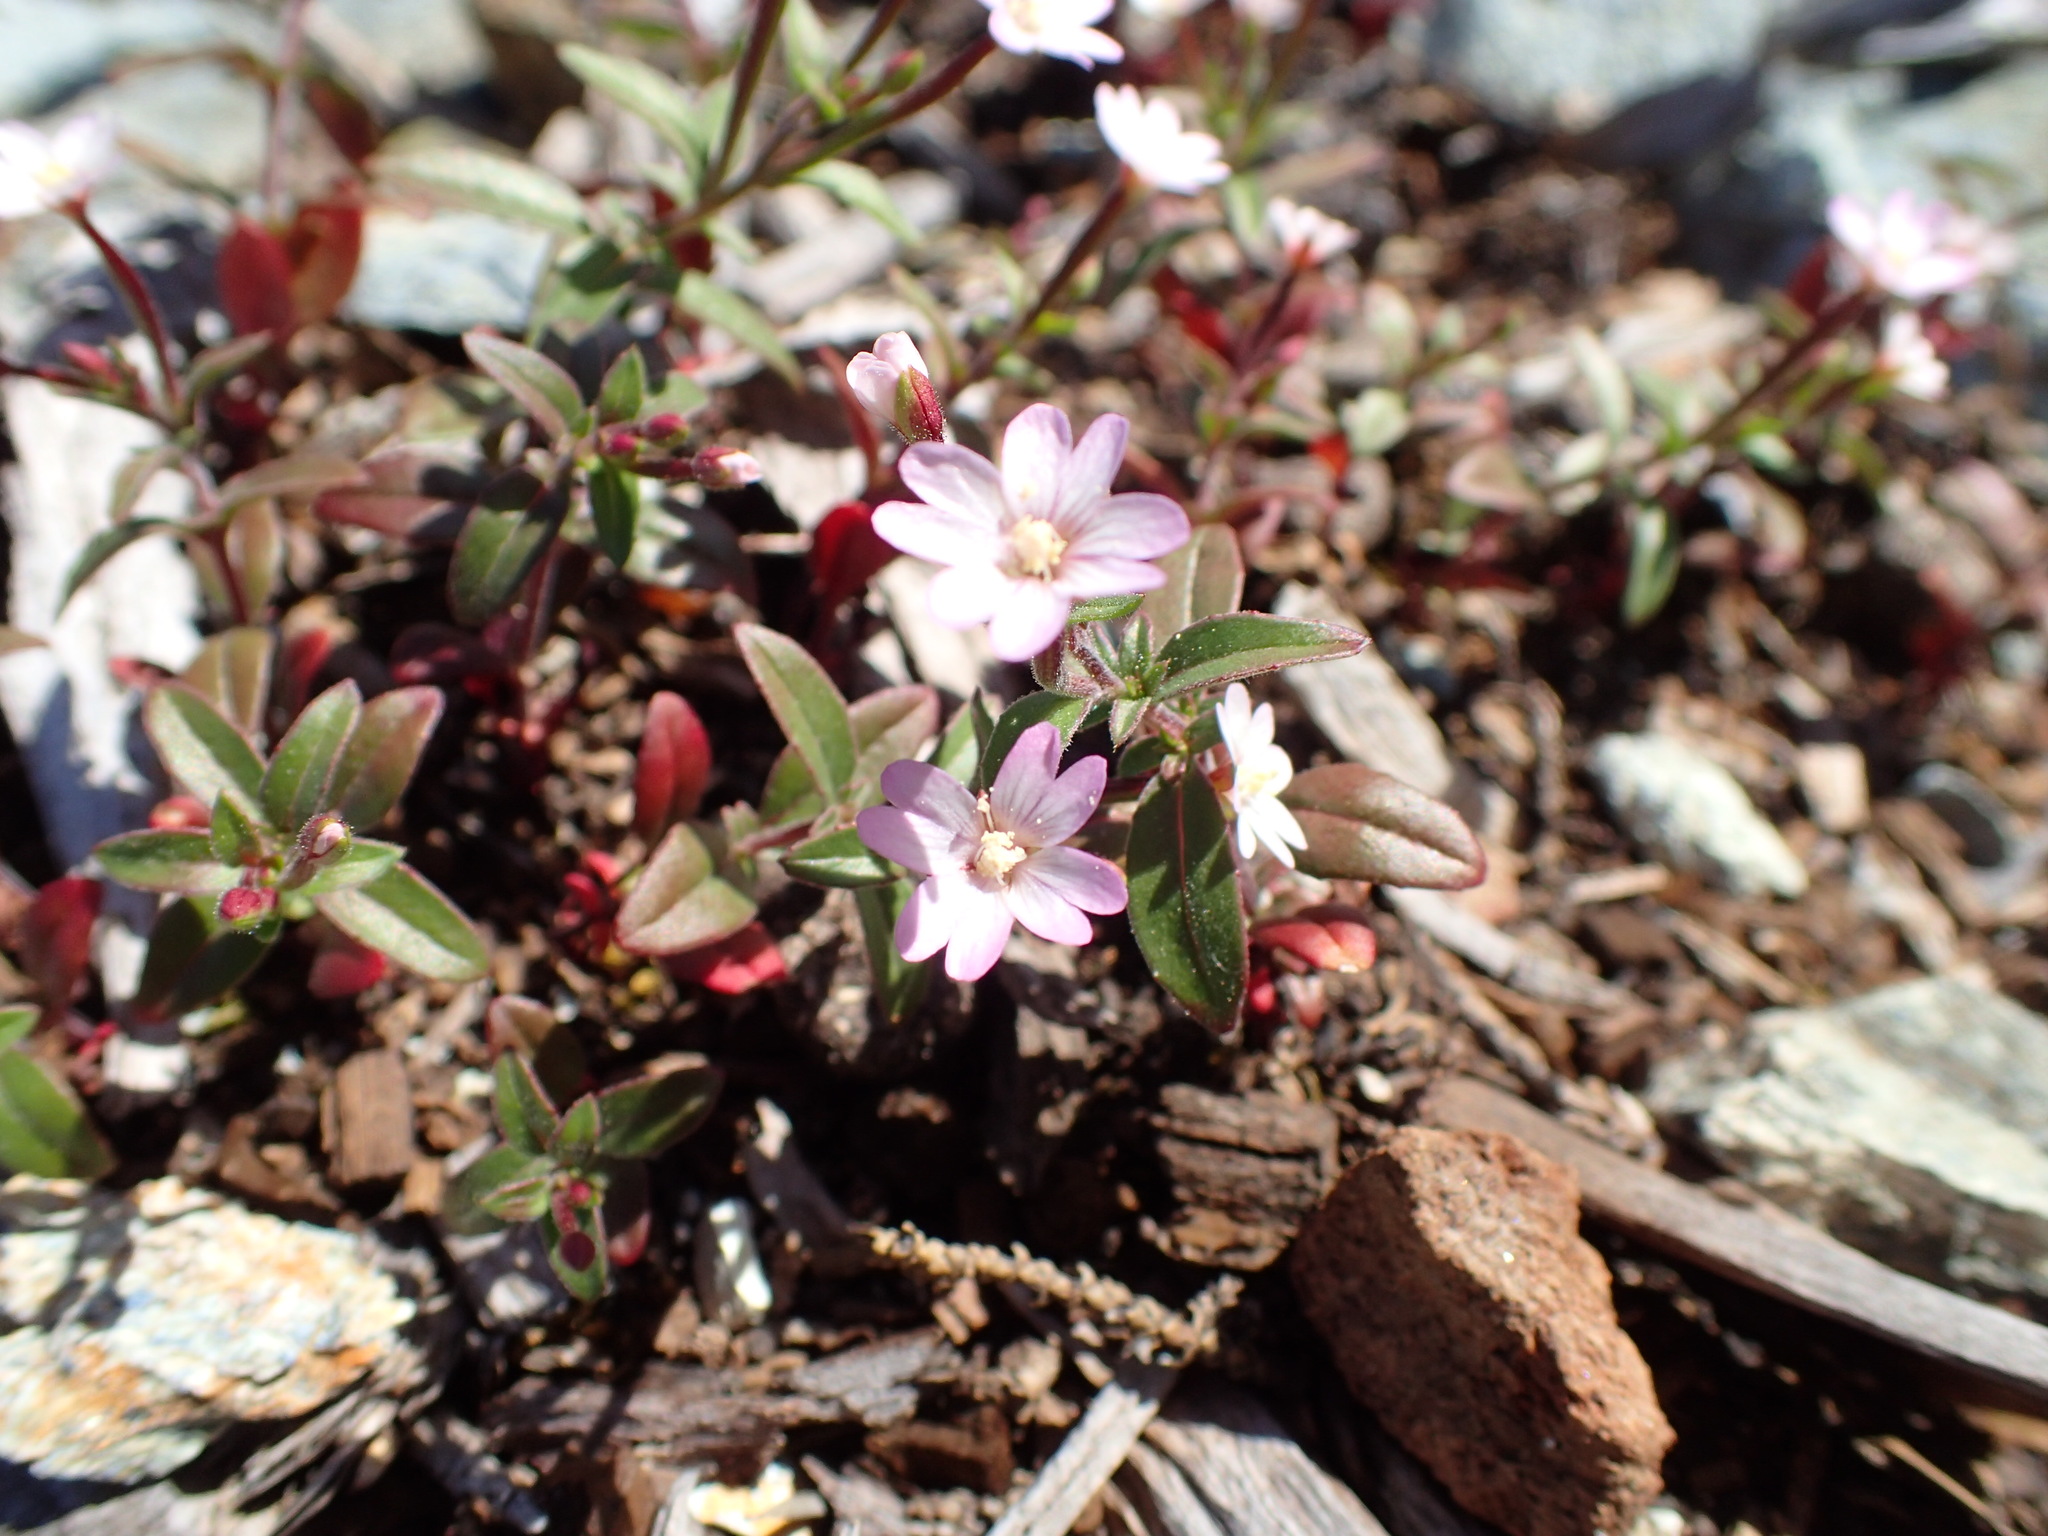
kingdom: Plantae
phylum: Tracheophyta
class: Magnoliopsida
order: Myrtales
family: Onagraceae
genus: Epilobium
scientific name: Epilobium minutum
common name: Chaparral willowherb
